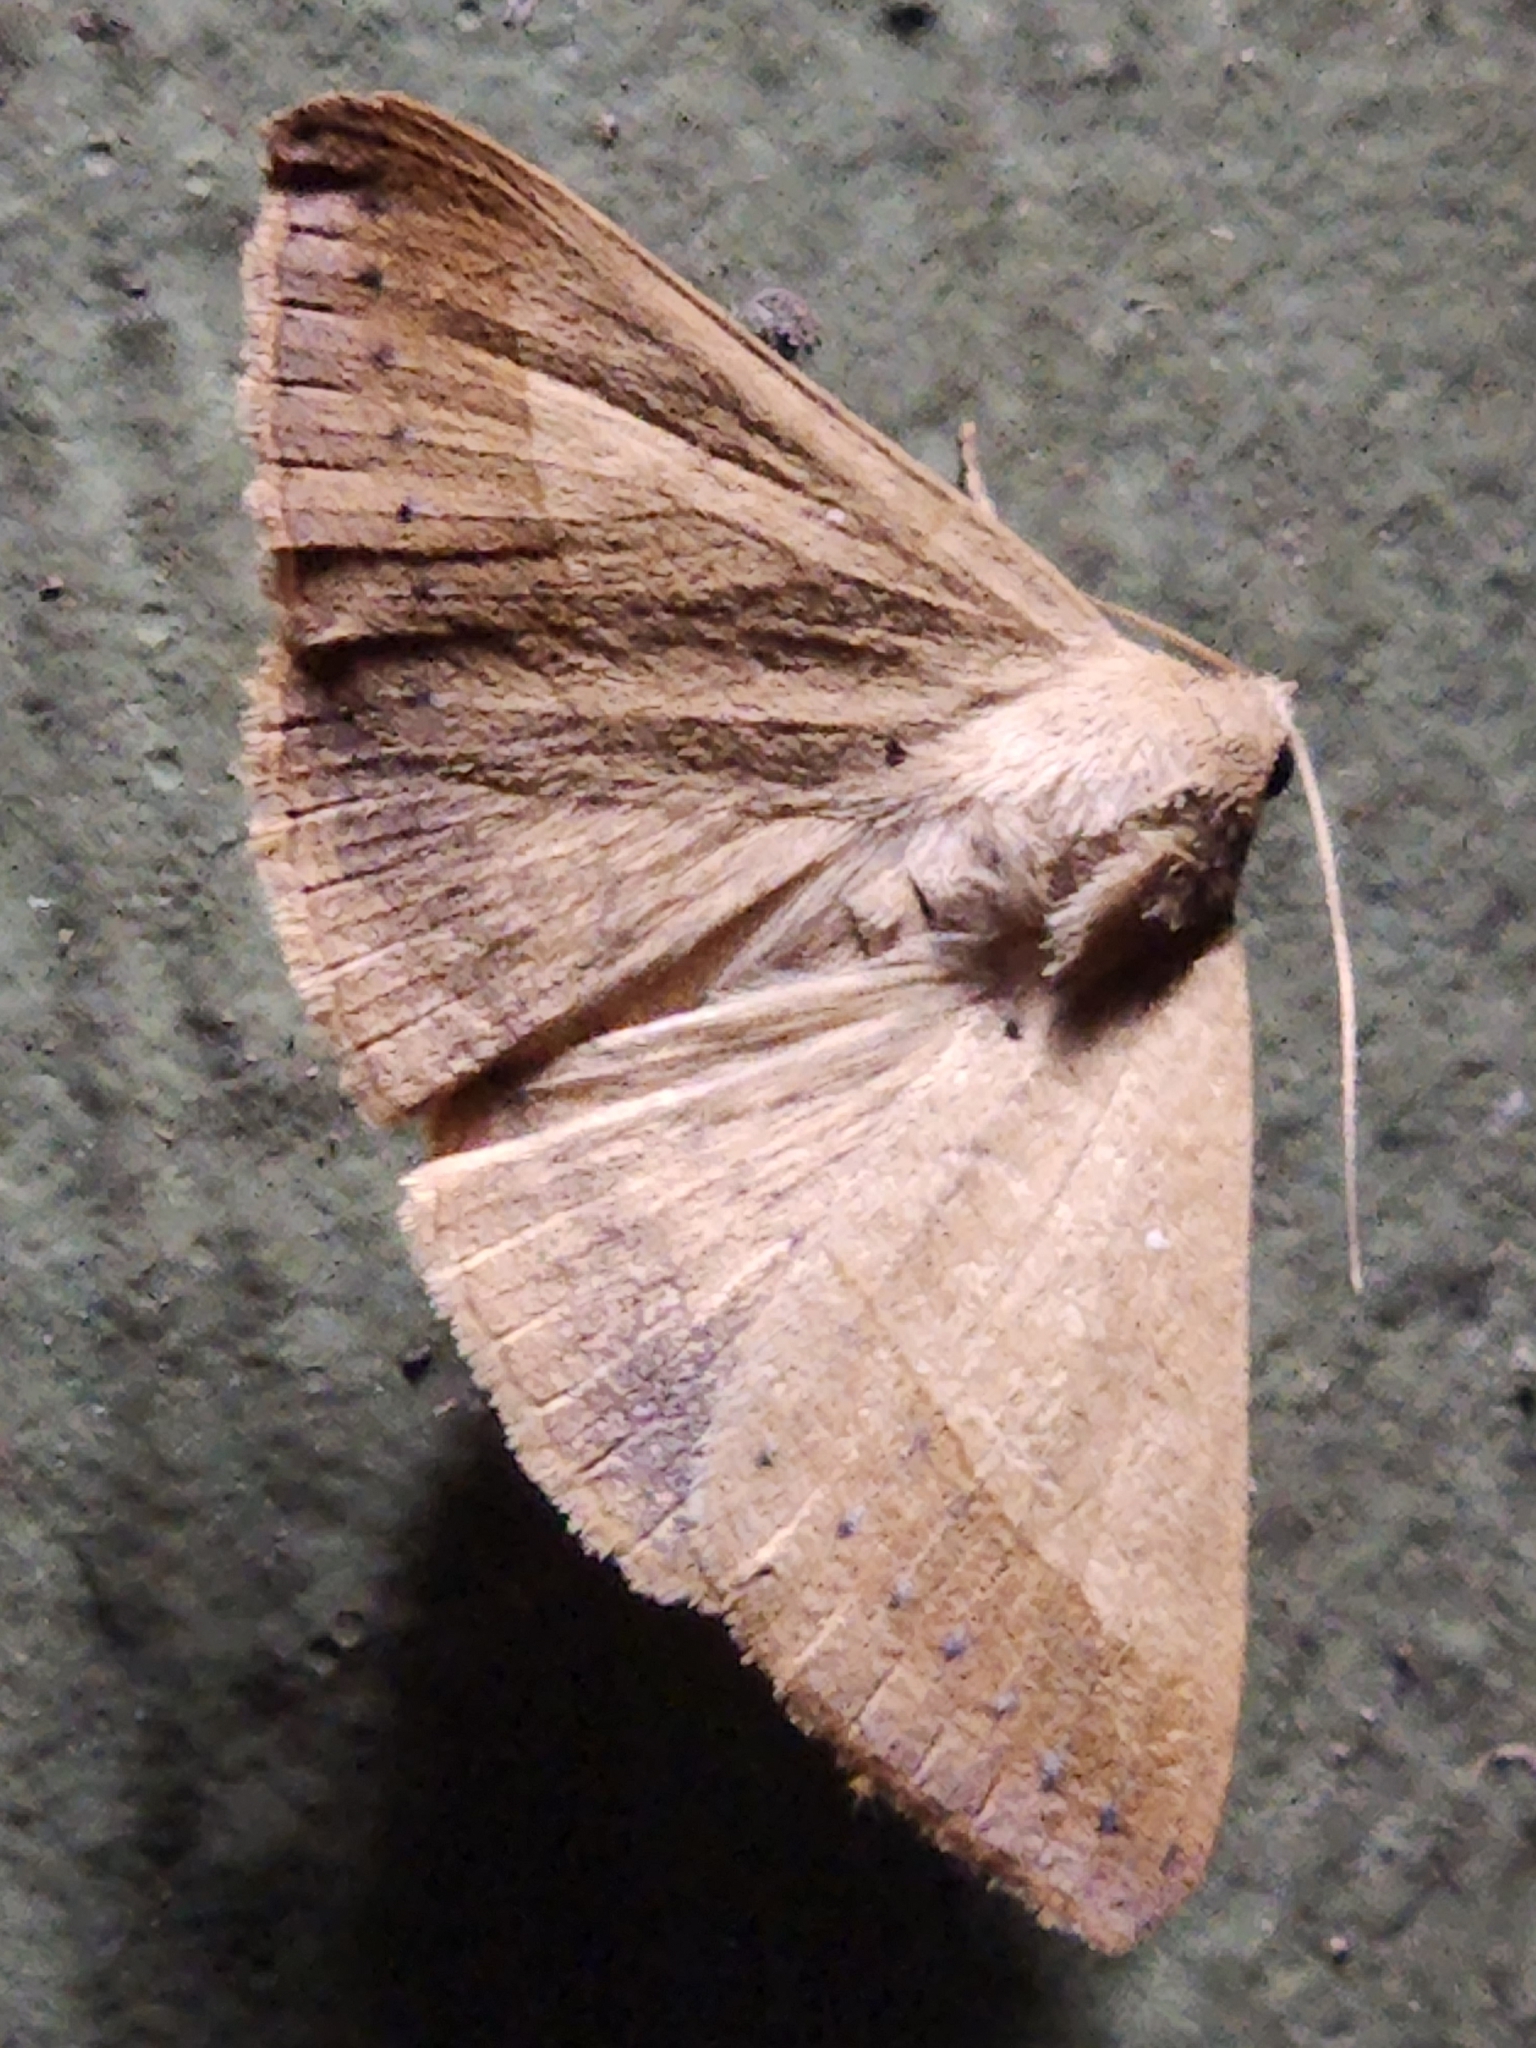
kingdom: Animalia
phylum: Arthropoda
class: Insecta
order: Lepidoptera
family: Erebidae
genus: Mocis
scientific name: Mocis disseverans
